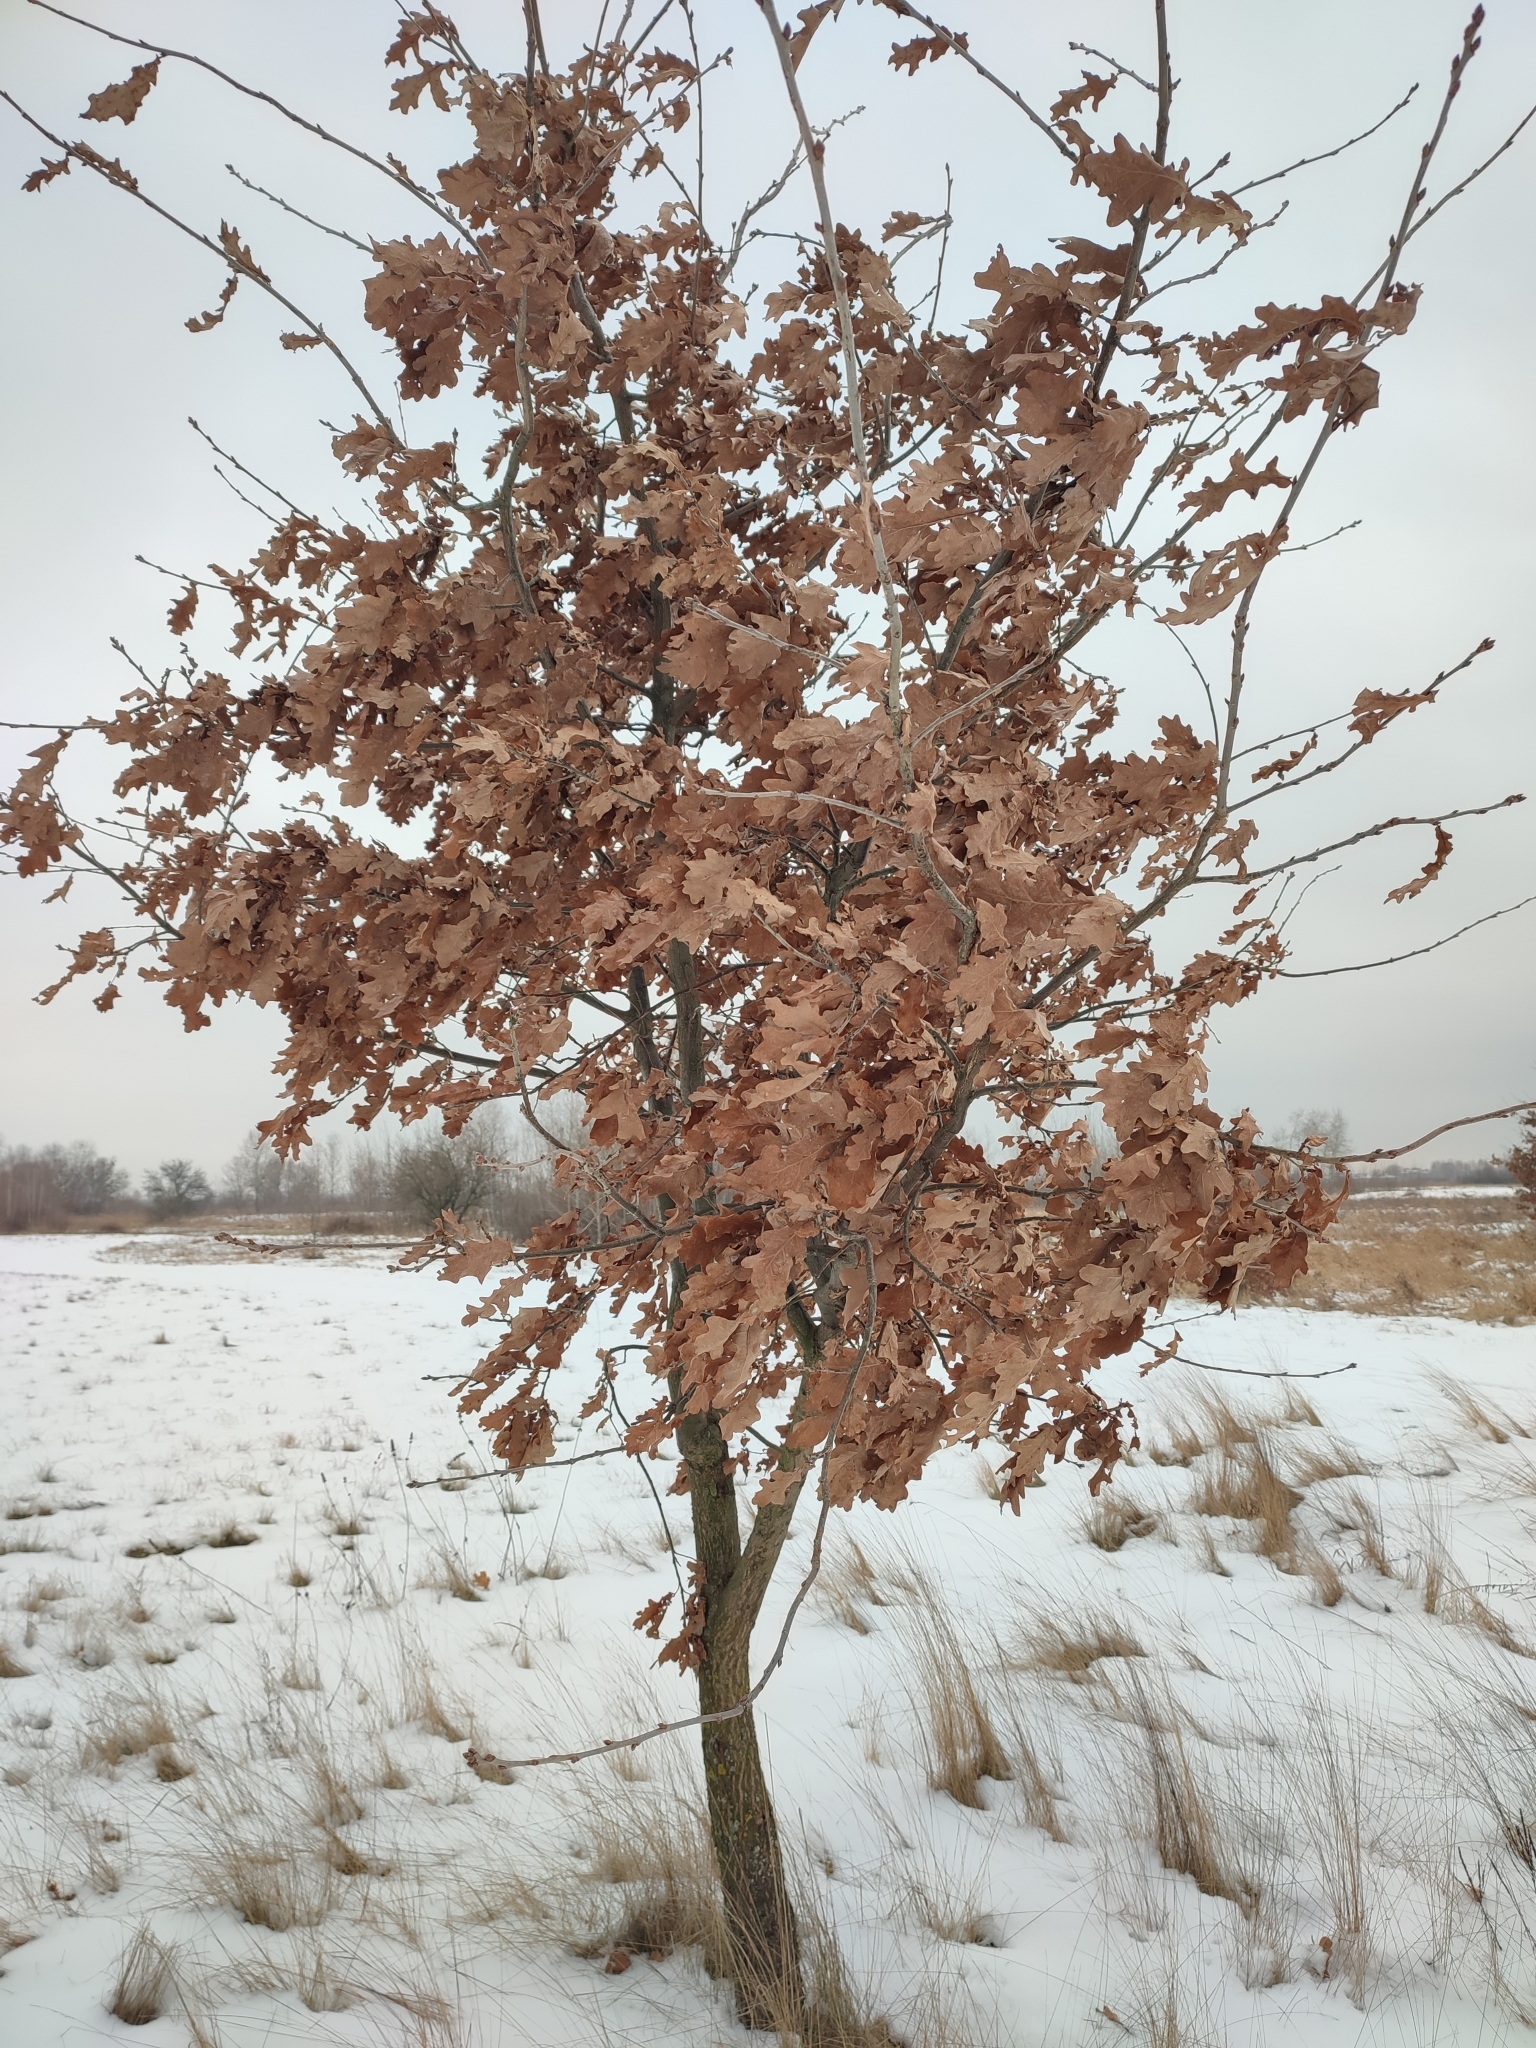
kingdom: Plantae
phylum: Tracheophyta
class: Magnoliopsida
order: Fagales
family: Fagaceae
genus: Quercus
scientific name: Quercus robur
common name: Pedunculate oak
